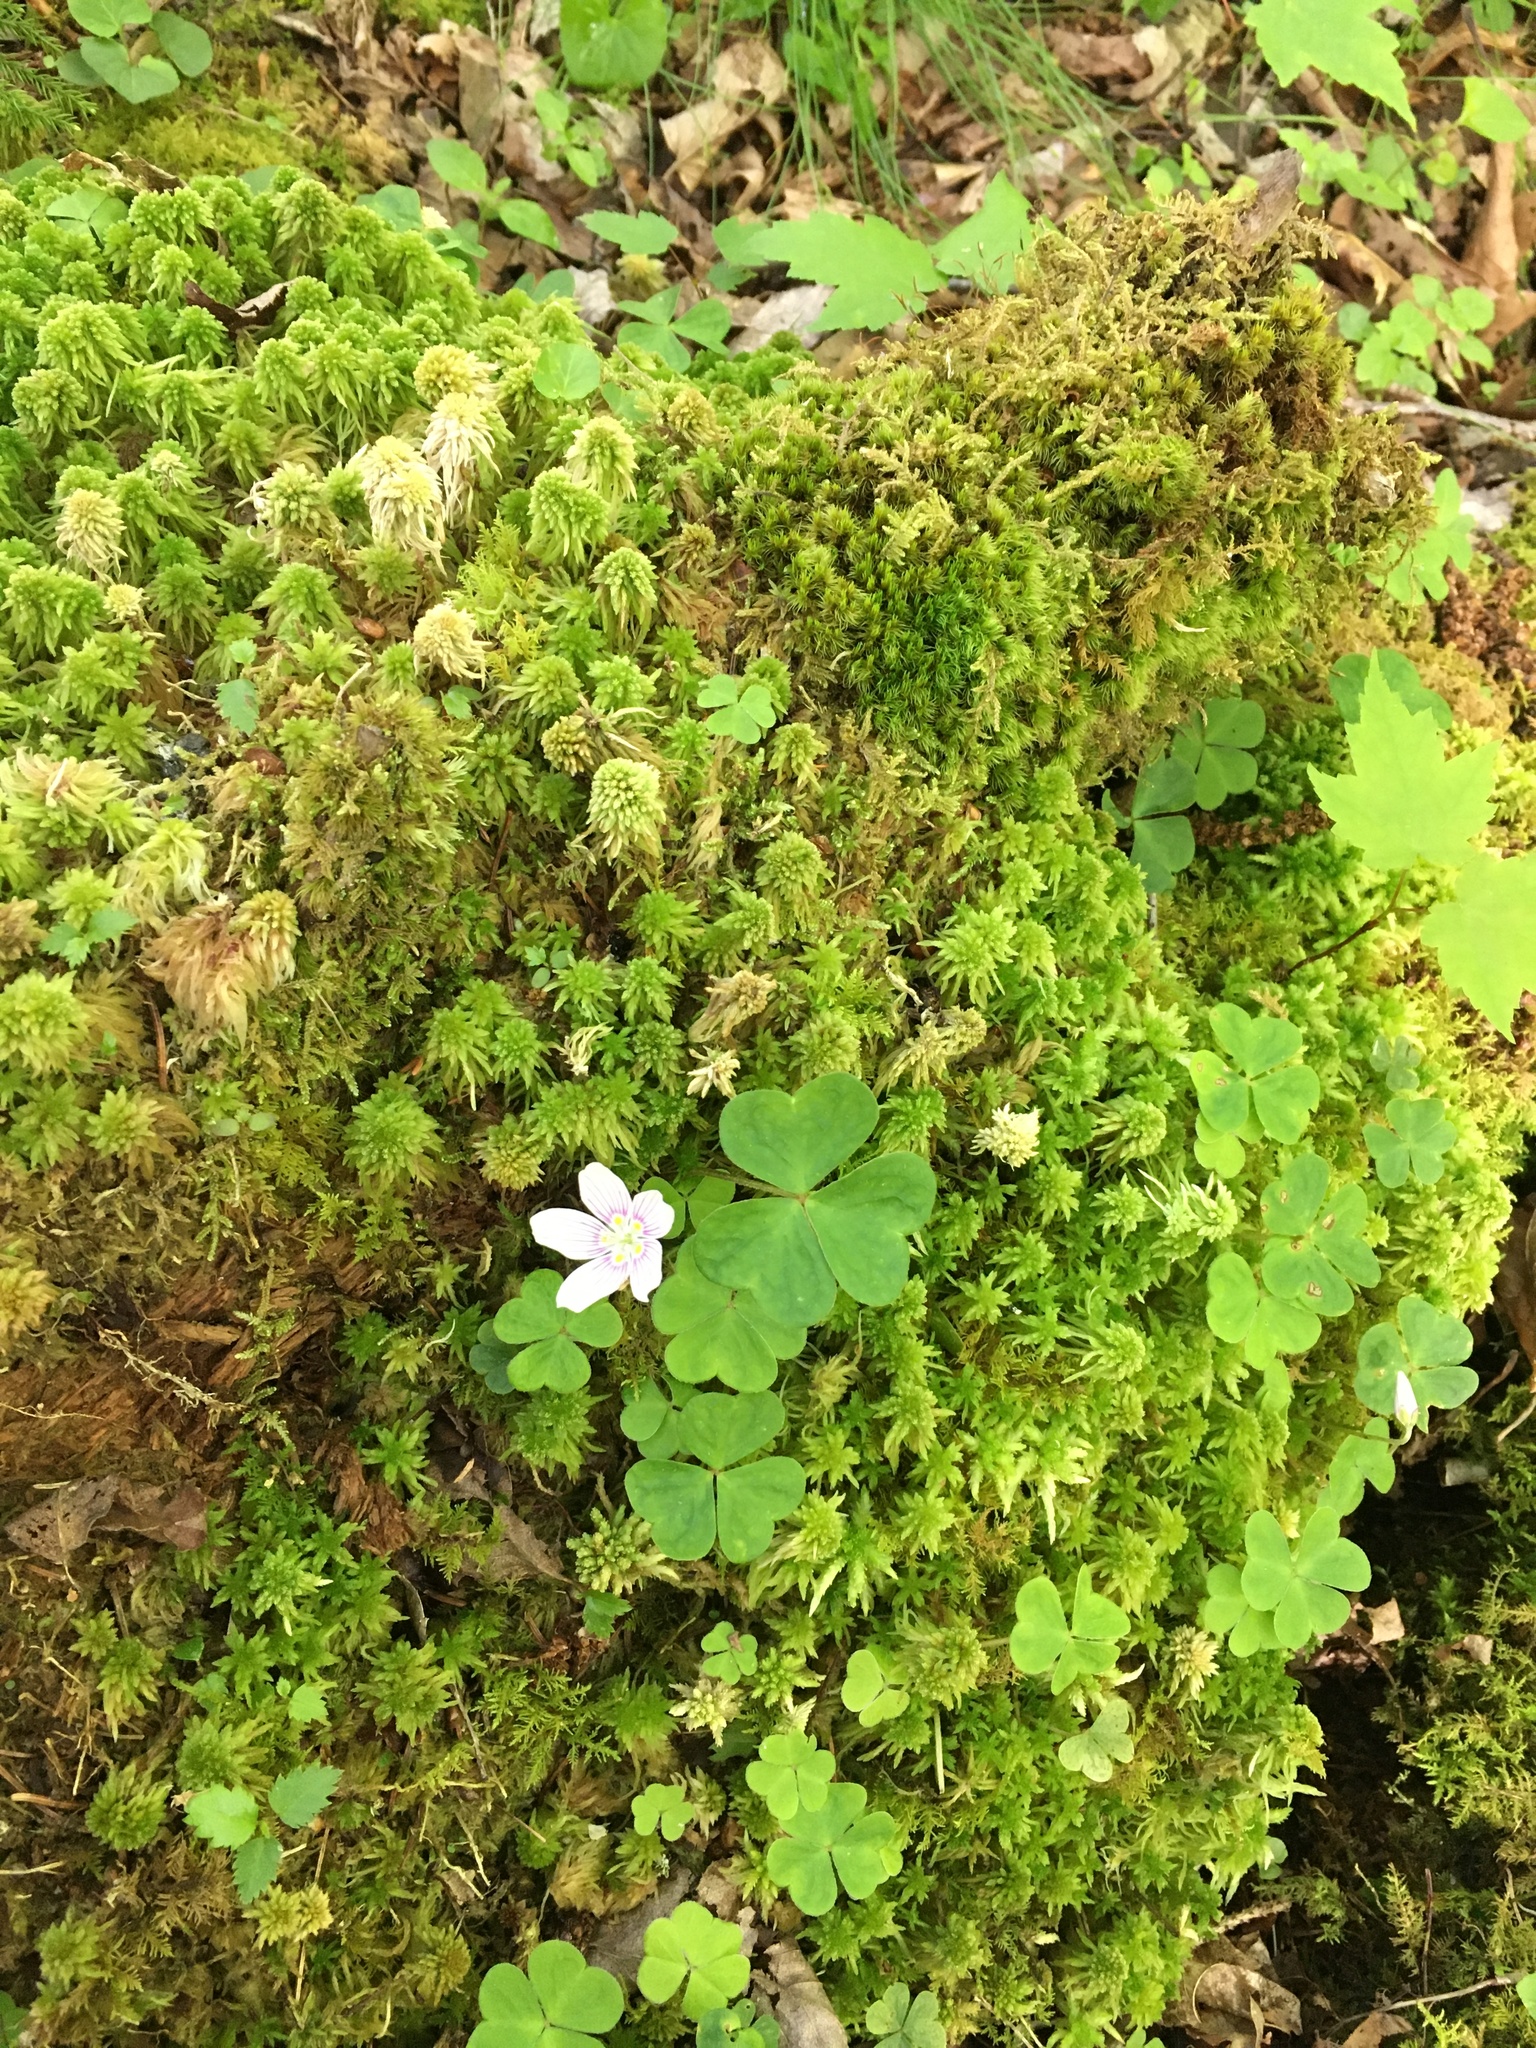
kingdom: Plantae
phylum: Tracheophyta
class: Magnoliopsida
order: Oxalidales
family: Oxalidaceae
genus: Oxalis
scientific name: Oxalis montana
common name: American wood-sorrel
